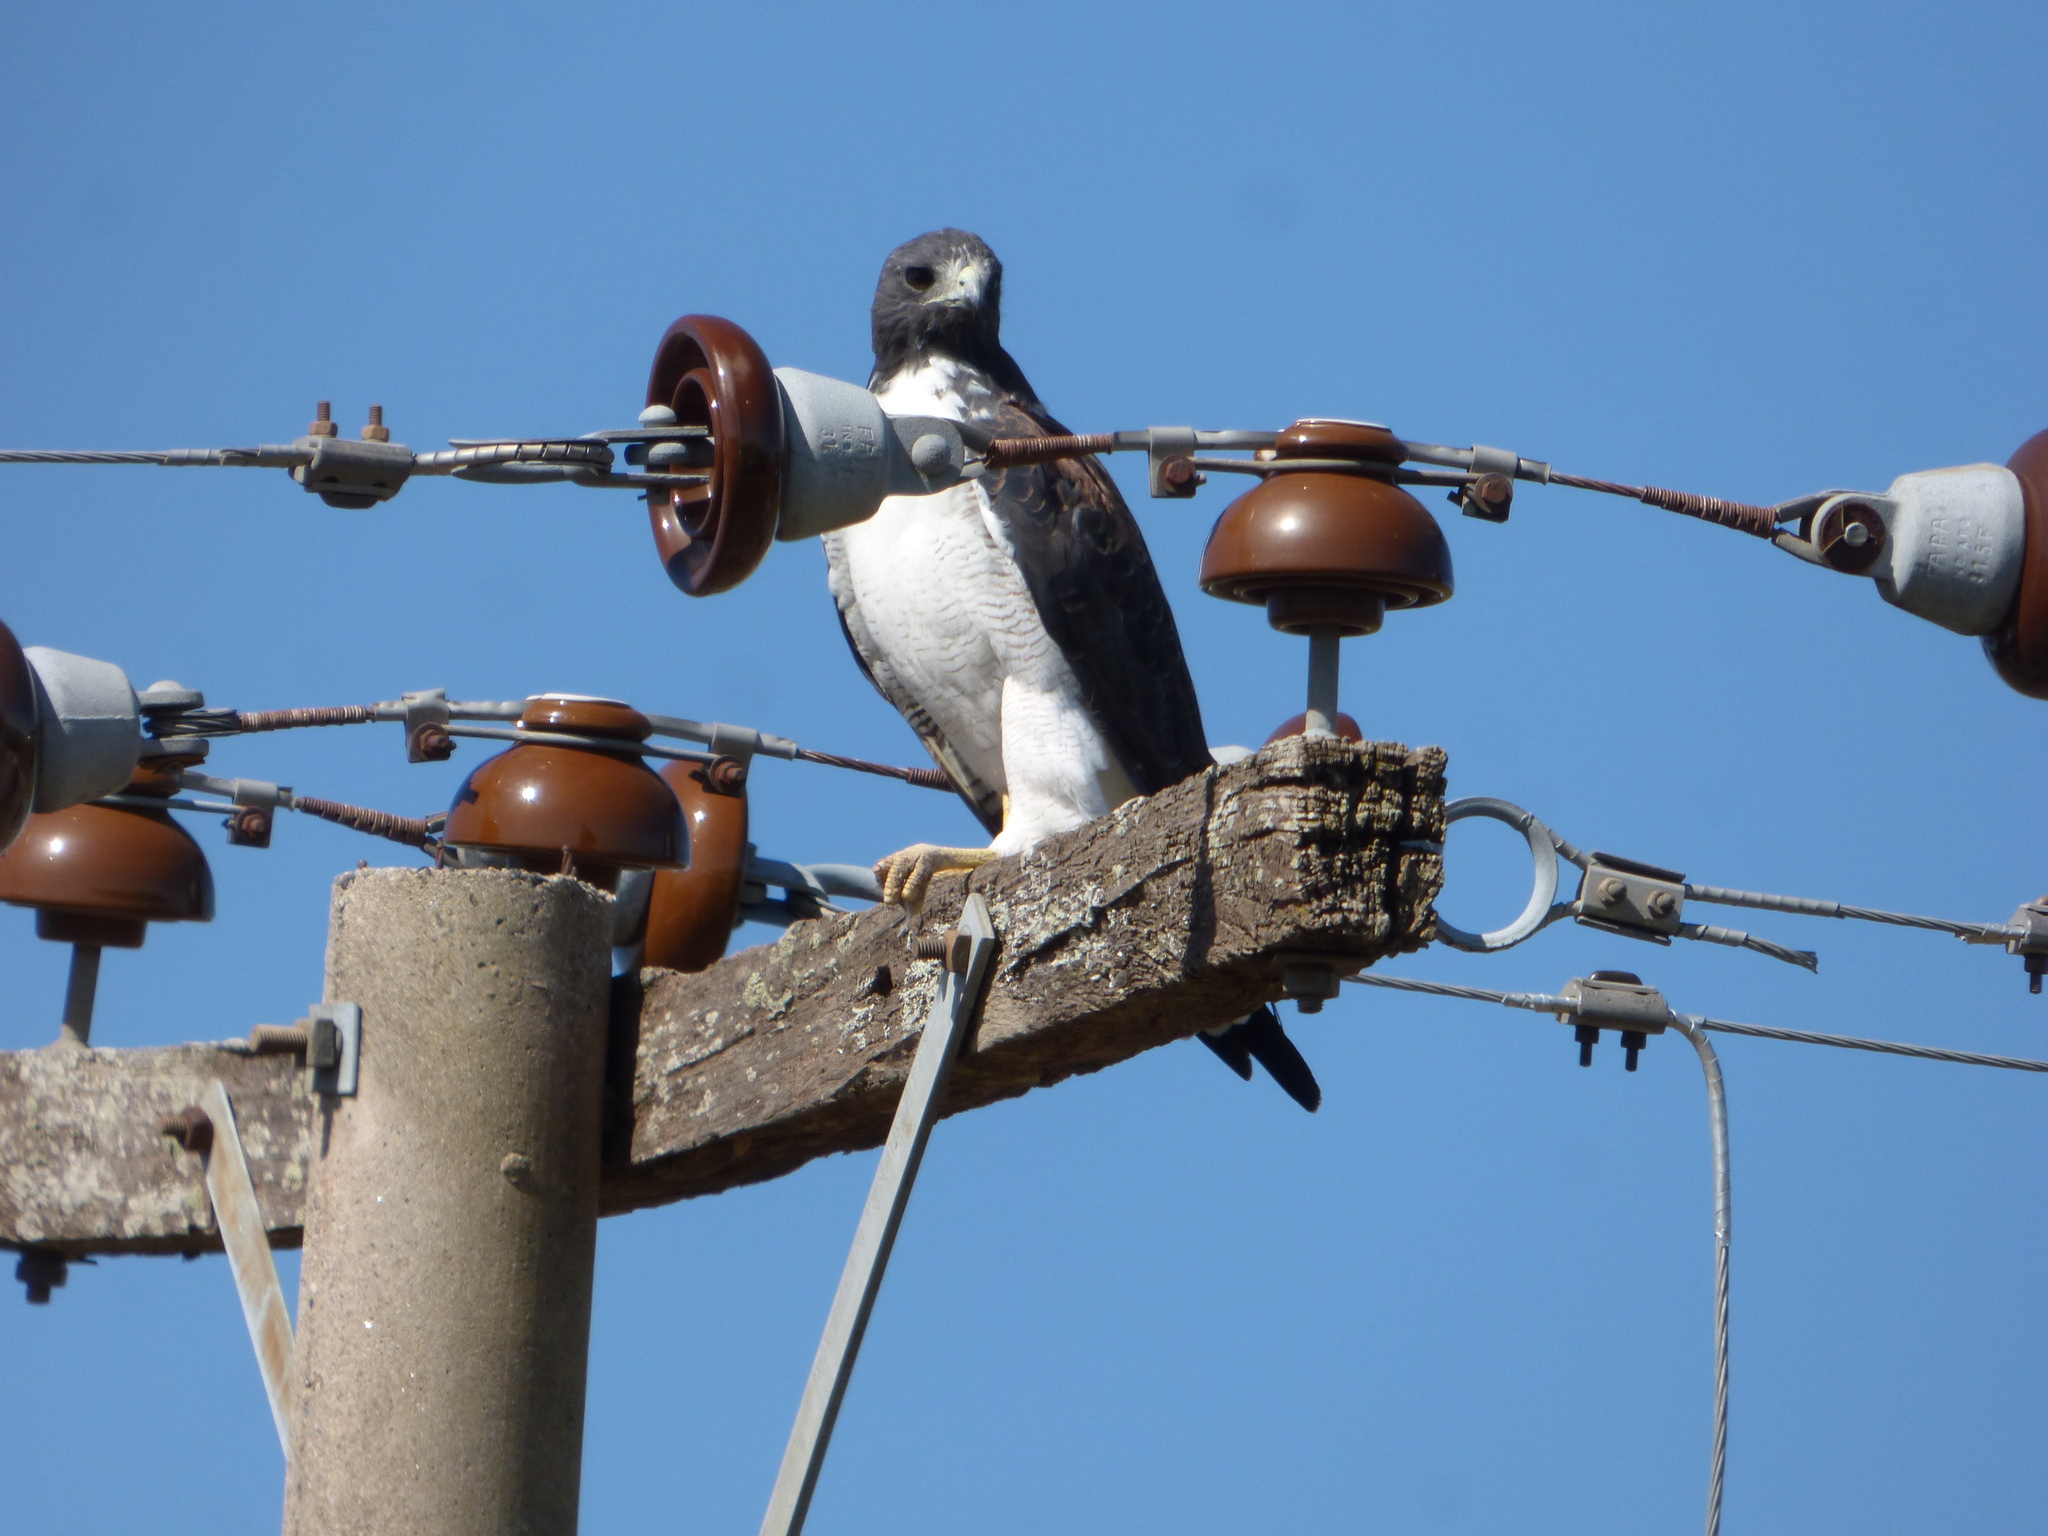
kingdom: Animalia
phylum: Chordata
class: Aves
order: Accipitriformes
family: Accipitridae
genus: Buteo
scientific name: Buteo albicaudatus
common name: White-tailed hawk
